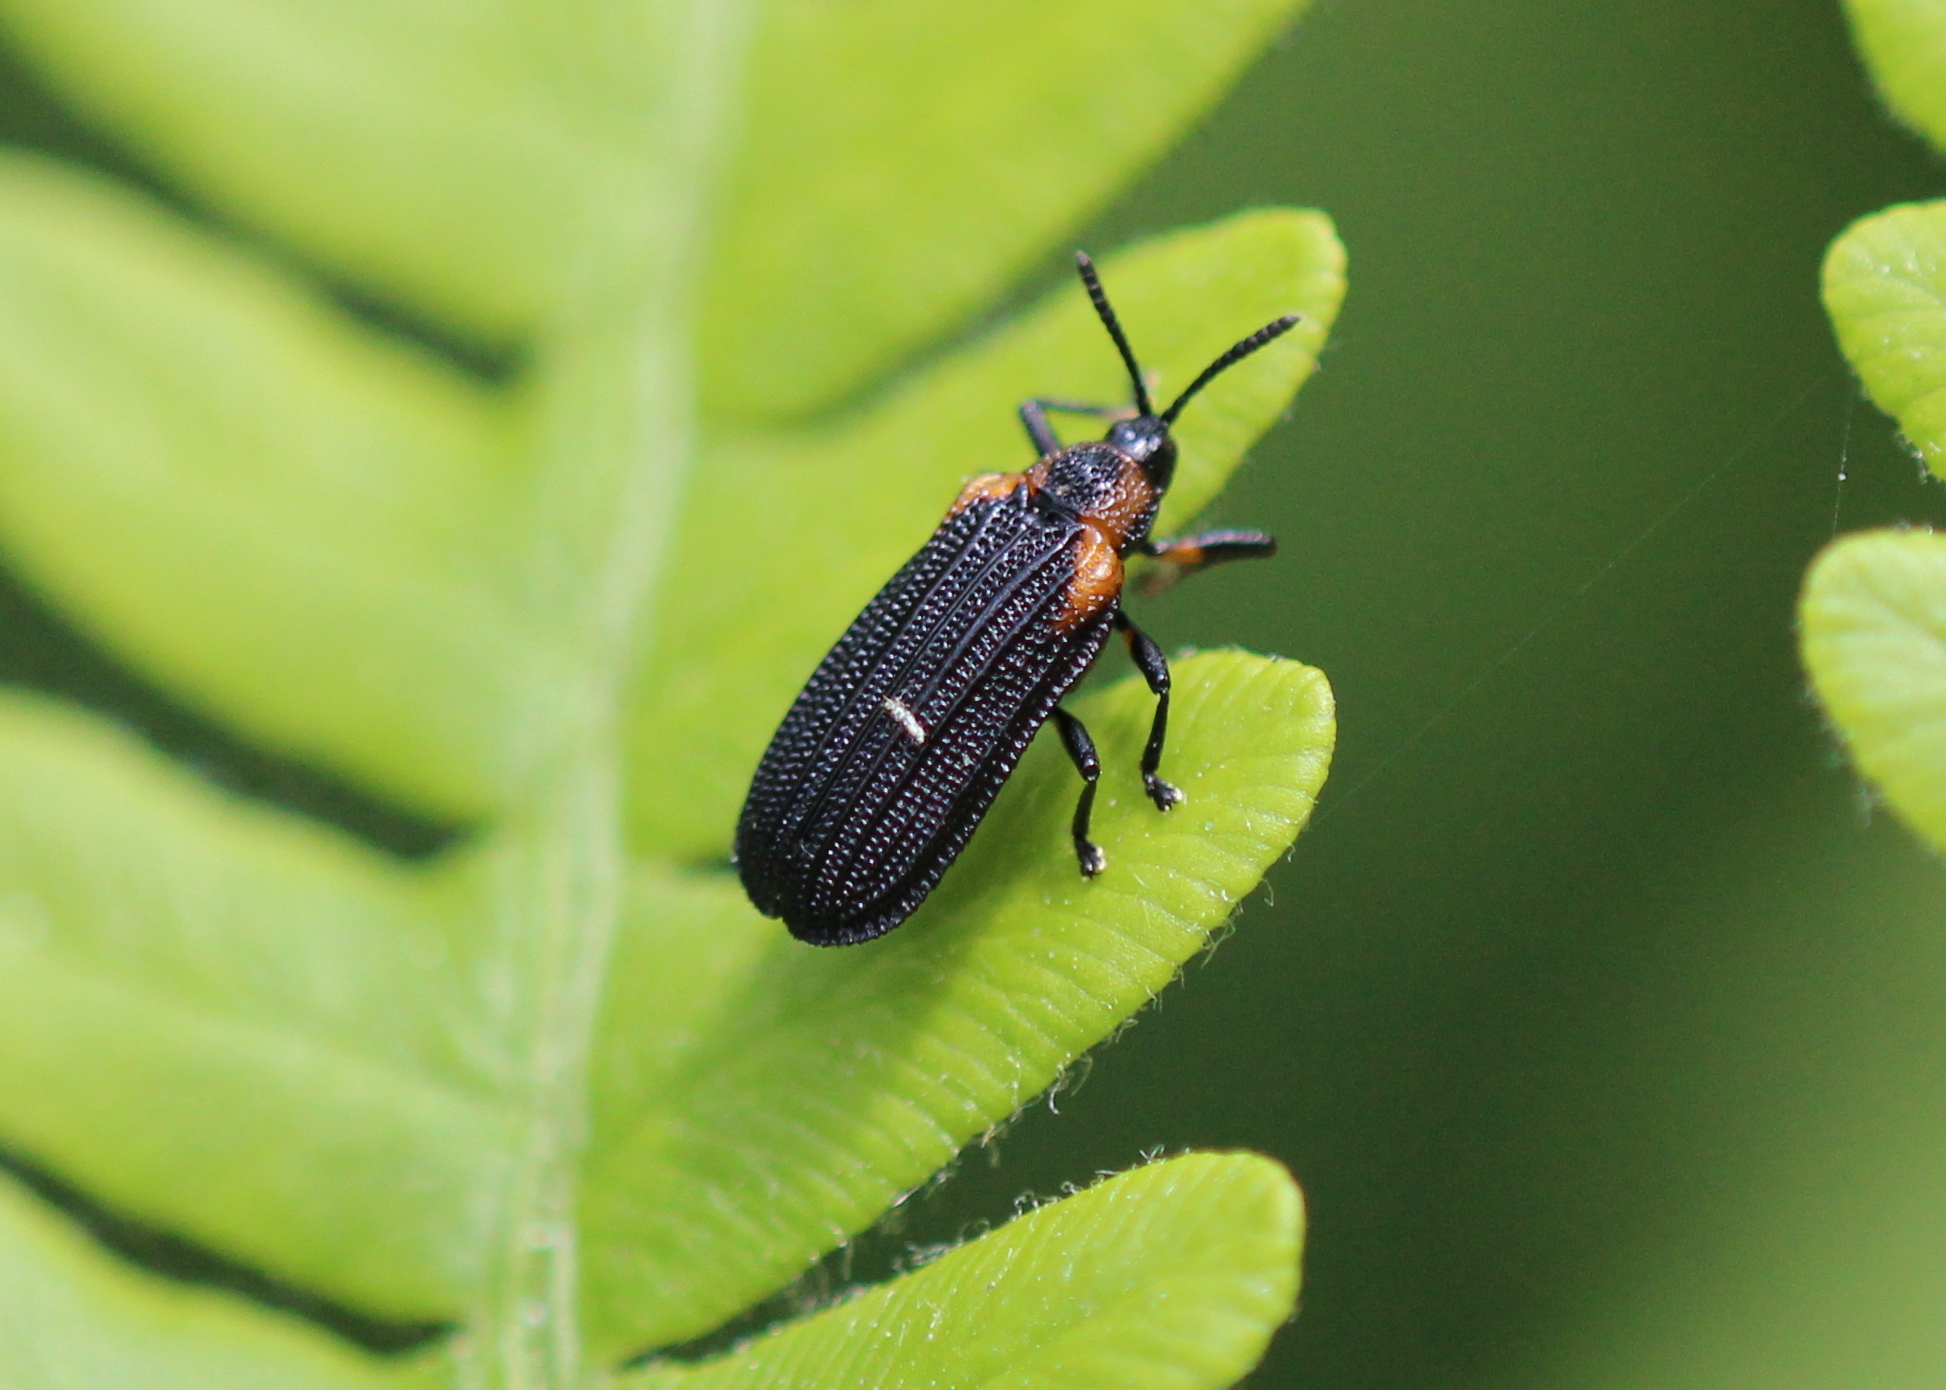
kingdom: Animalia
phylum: Arthropoda
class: Insecta
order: Coleoptera
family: Chrysomelidae
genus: Odontota
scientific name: Odontota scapularis
